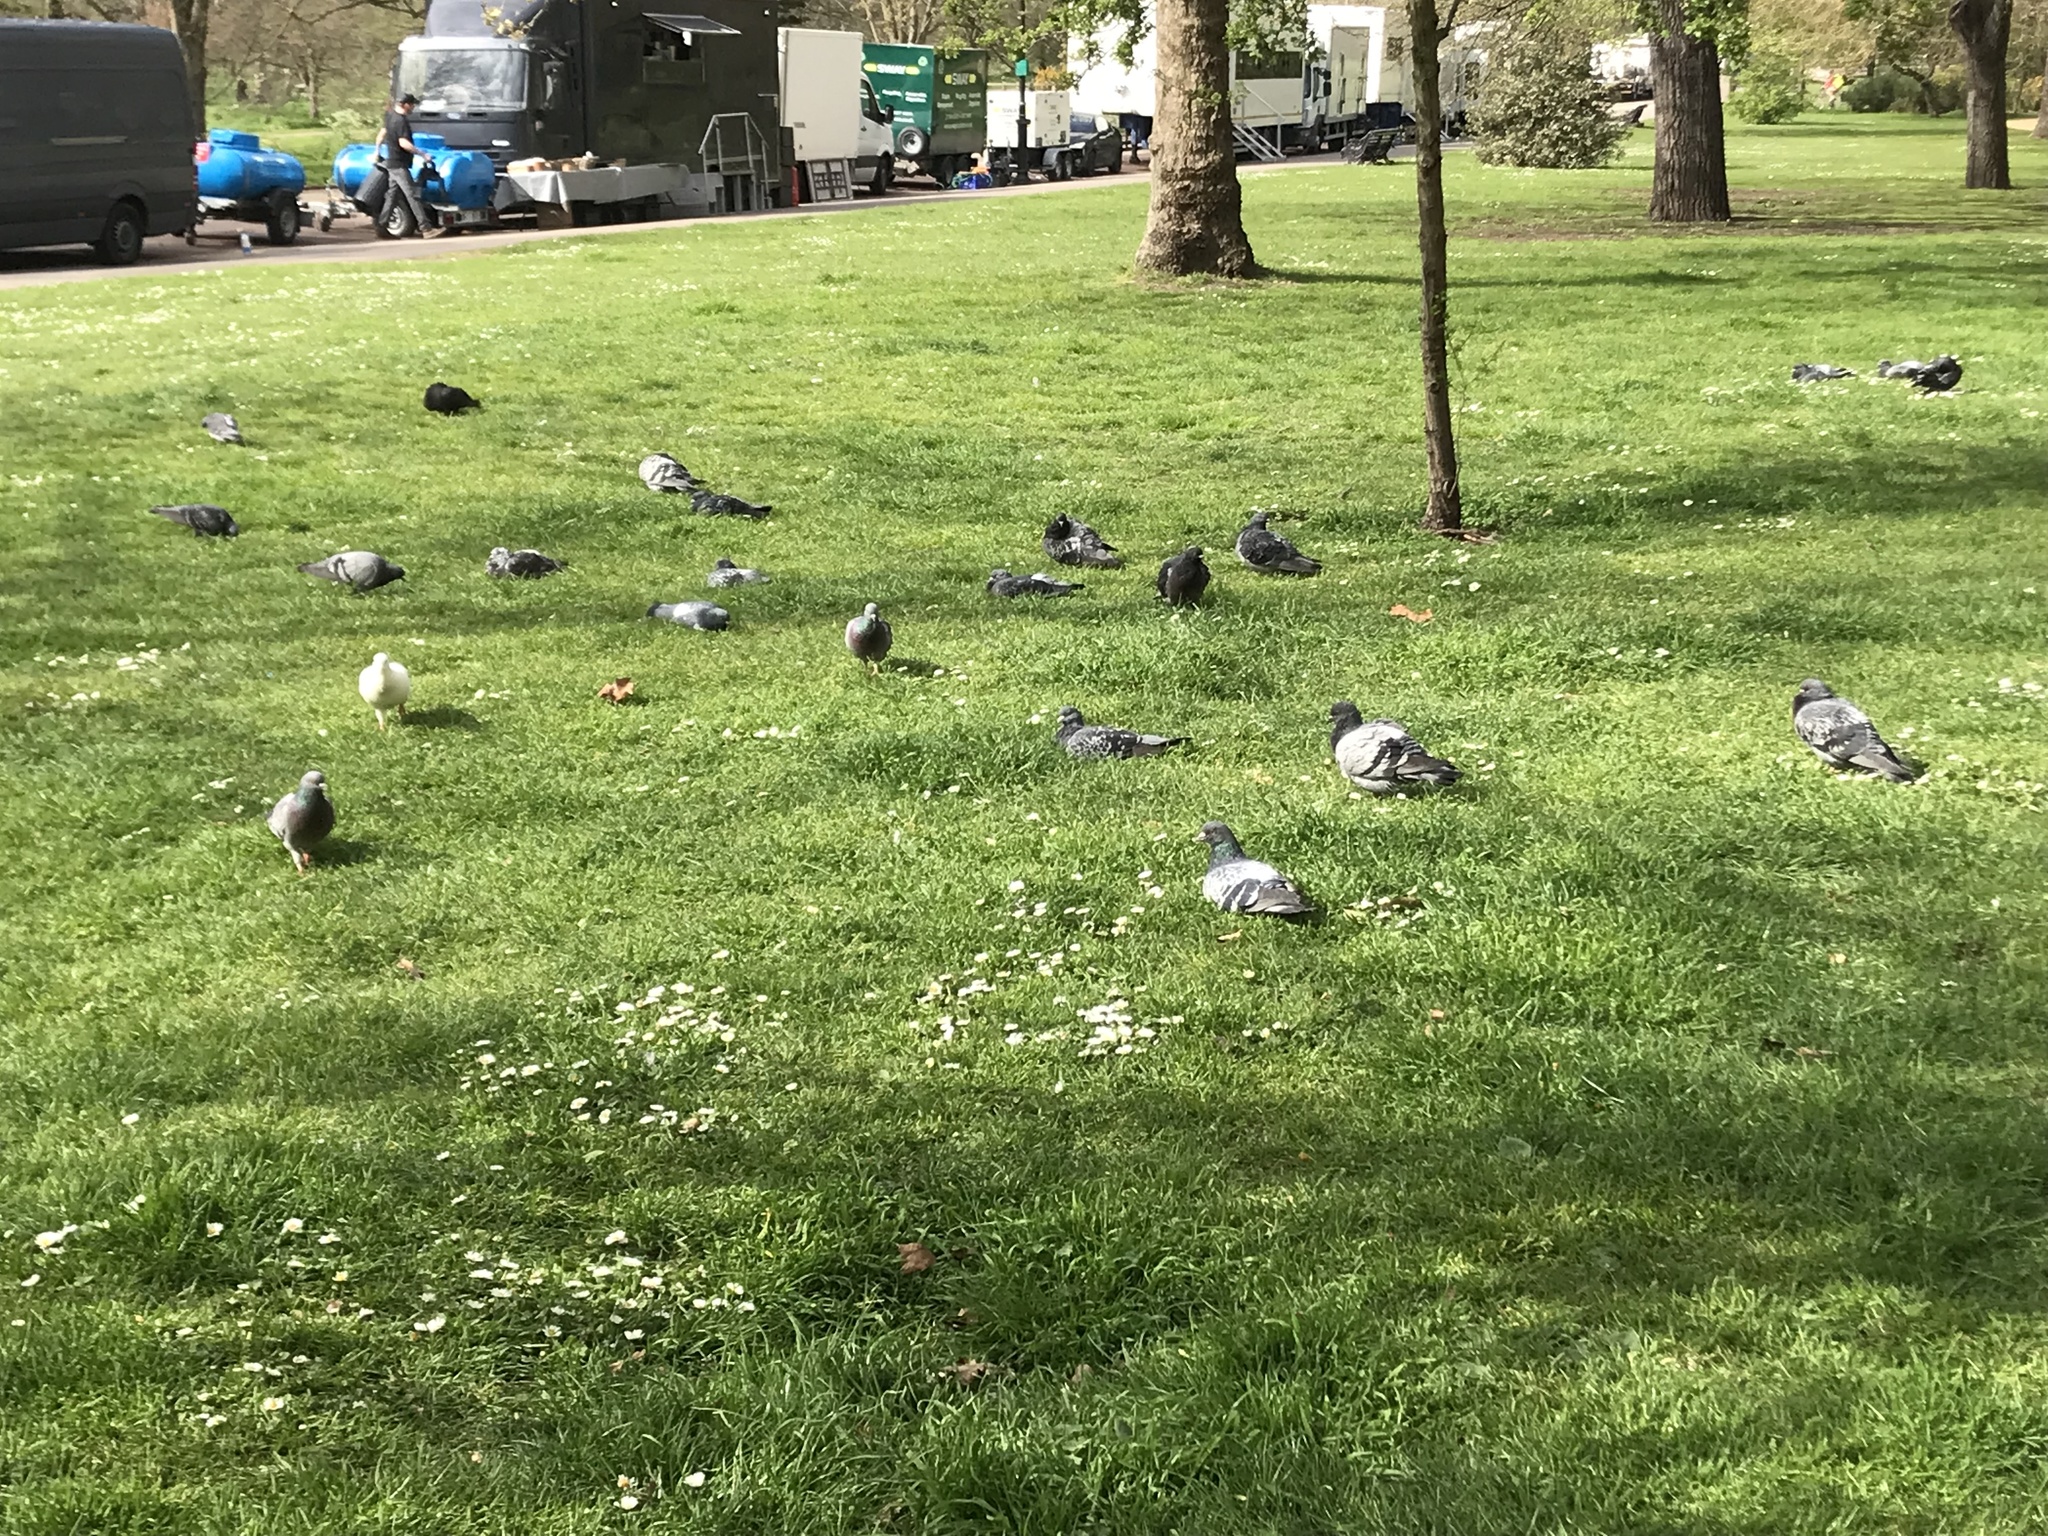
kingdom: Animalia
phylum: Chordata
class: Aves
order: Columbiformes
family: Columbidae
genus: Columba
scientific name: Columba livia
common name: Rock pigeon
